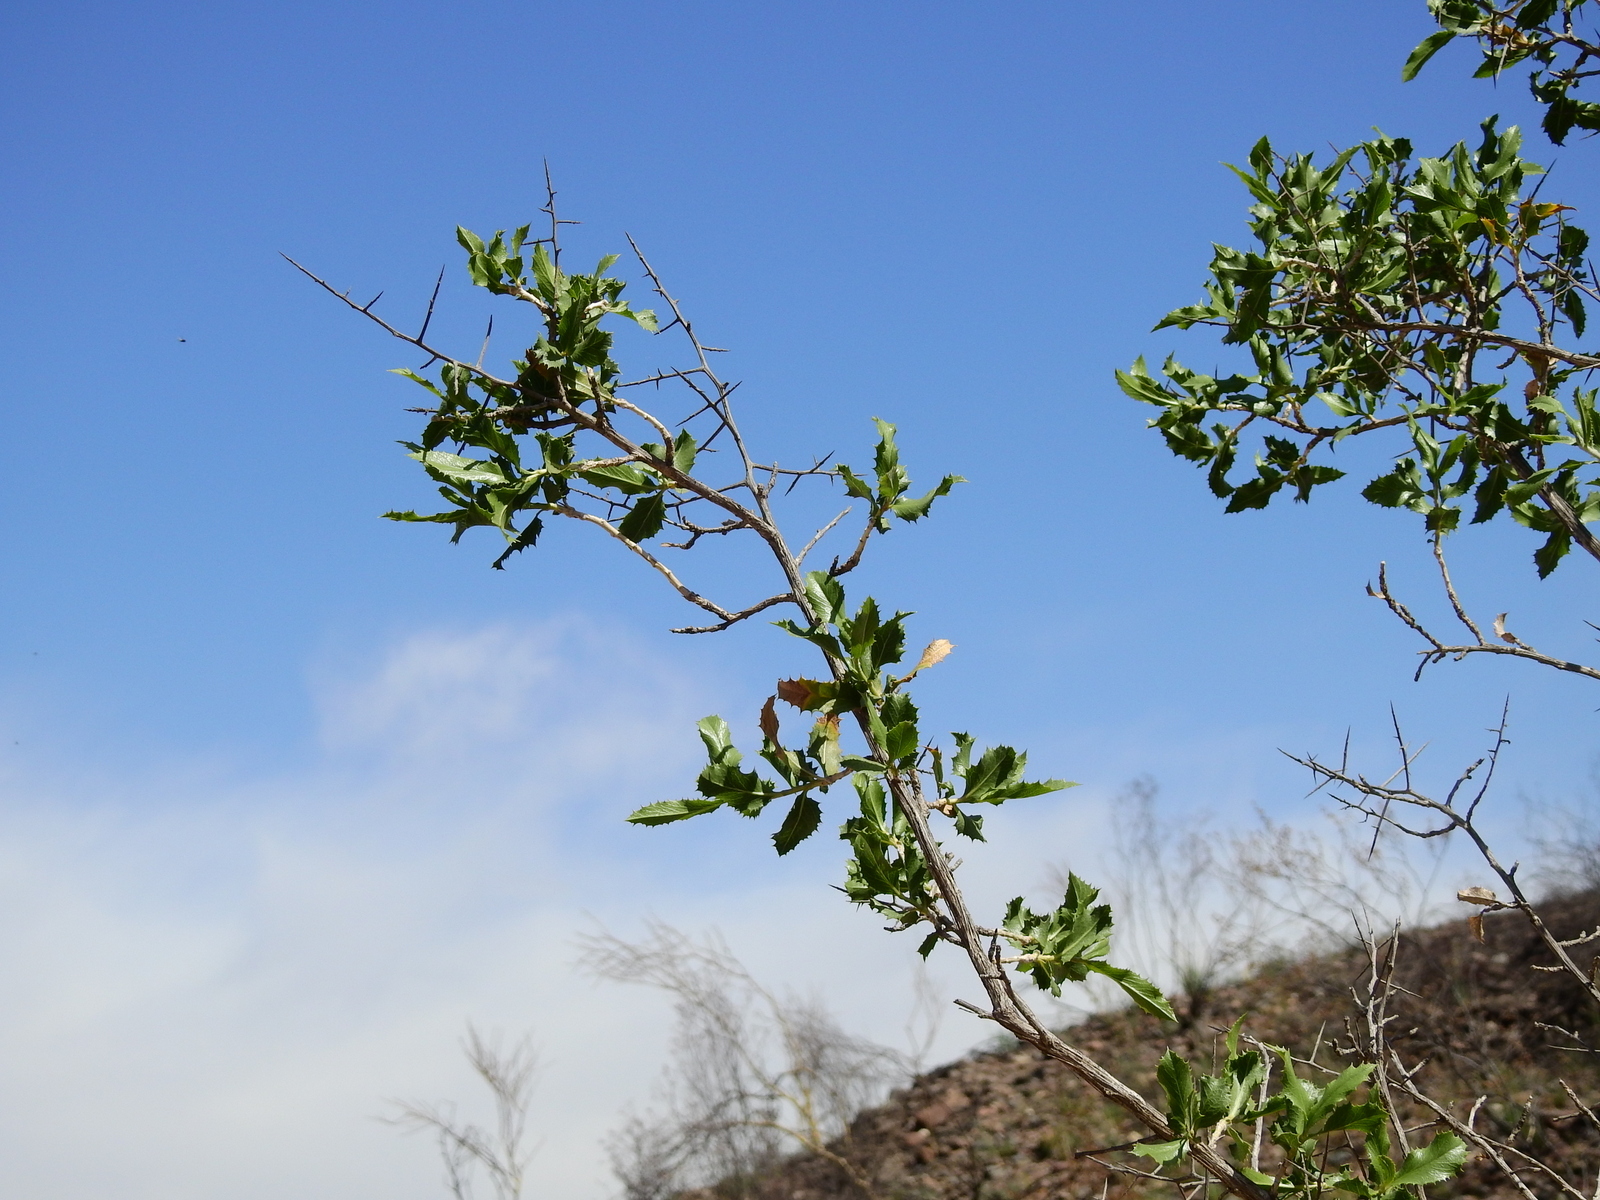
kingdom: Plantae
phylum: Tracheophyta
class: Magnoliopsida
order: Asterales
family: Asteraceae
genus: Proustia
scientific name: Proustia cuneifolia
